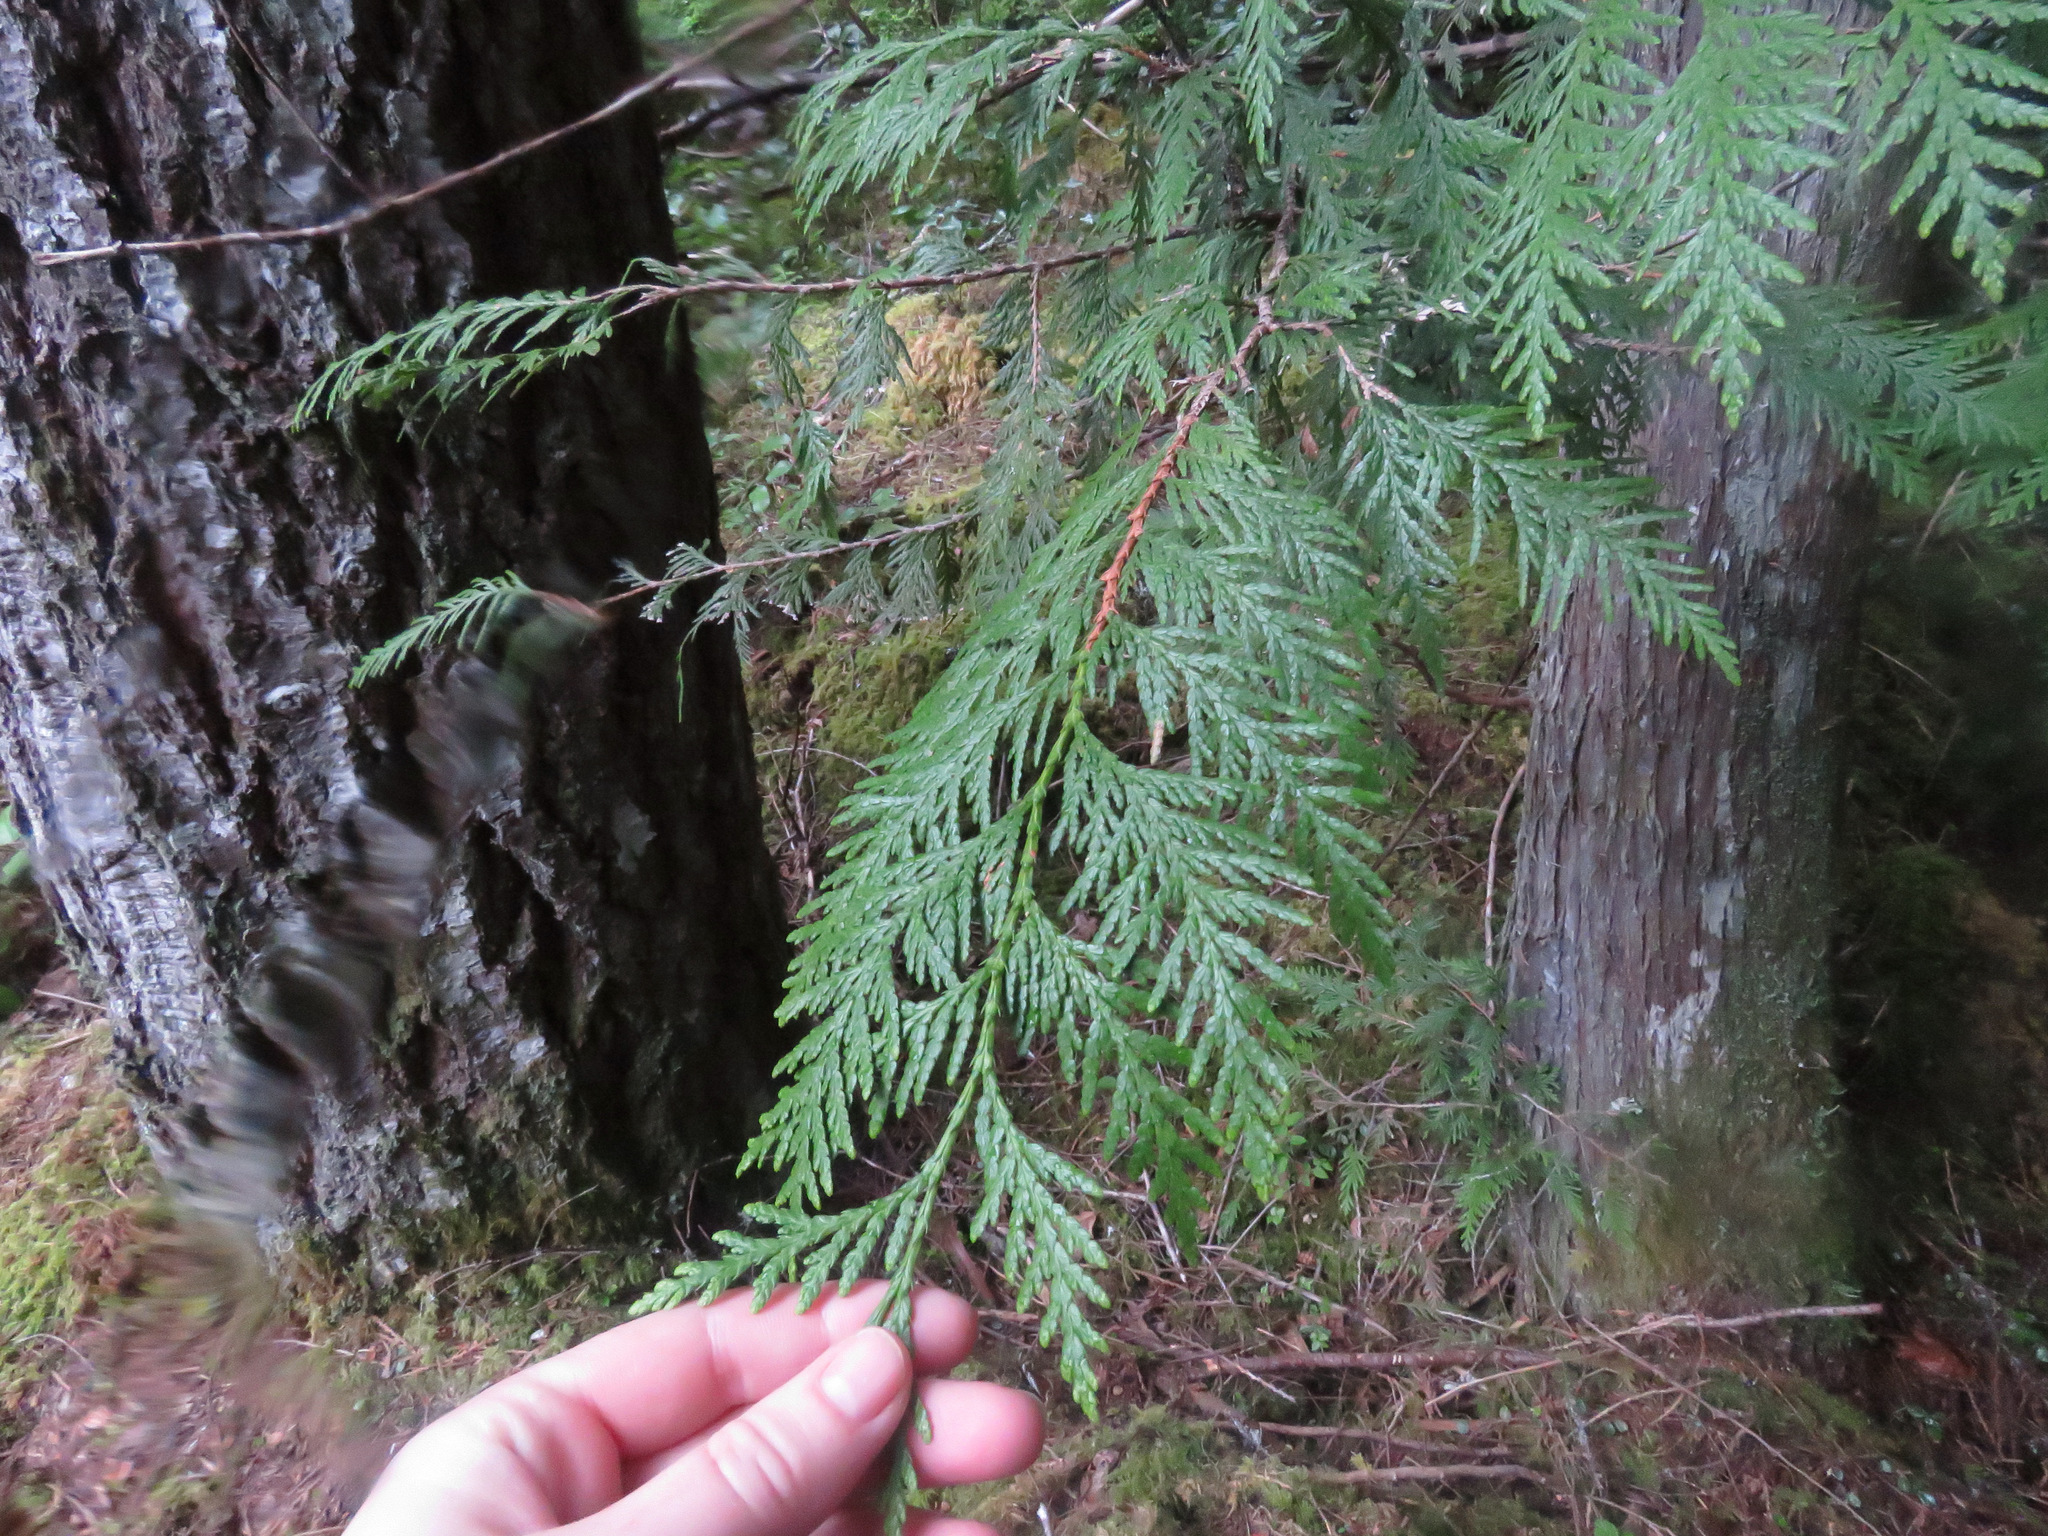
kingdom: Plantae
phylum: Tracheophyta
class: Pinopsida
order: Pinales
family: Cupressaceae
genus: Thuja
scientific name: Thuja plicata
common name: Western red-cedar
